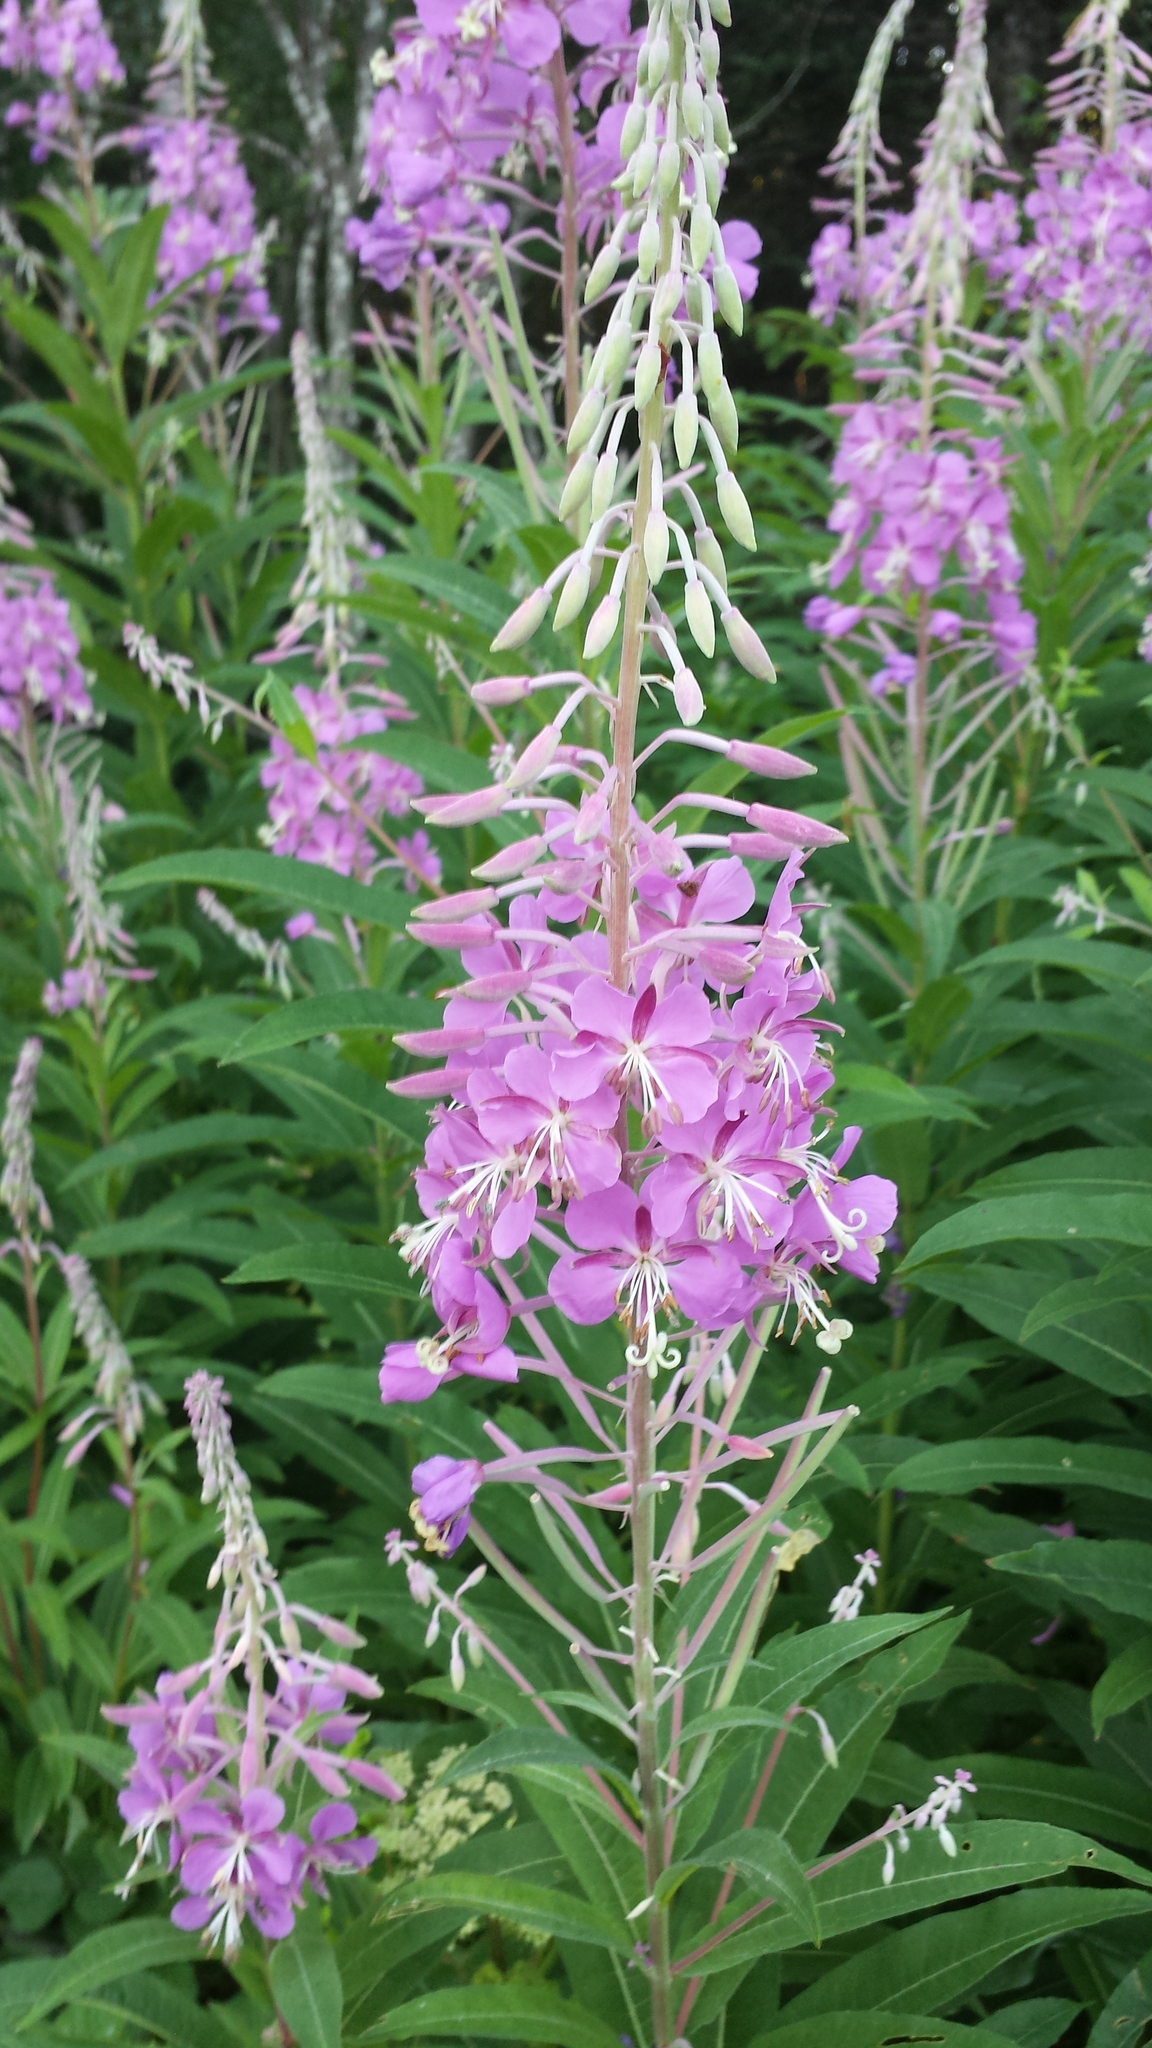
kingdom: Plantae
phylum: Tracheophyta
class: Magnoliopsida
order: Myrtales
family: Onagraceae
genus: Chamaenerion
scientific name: Chamaenerion angustifolium
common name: Fireweed
